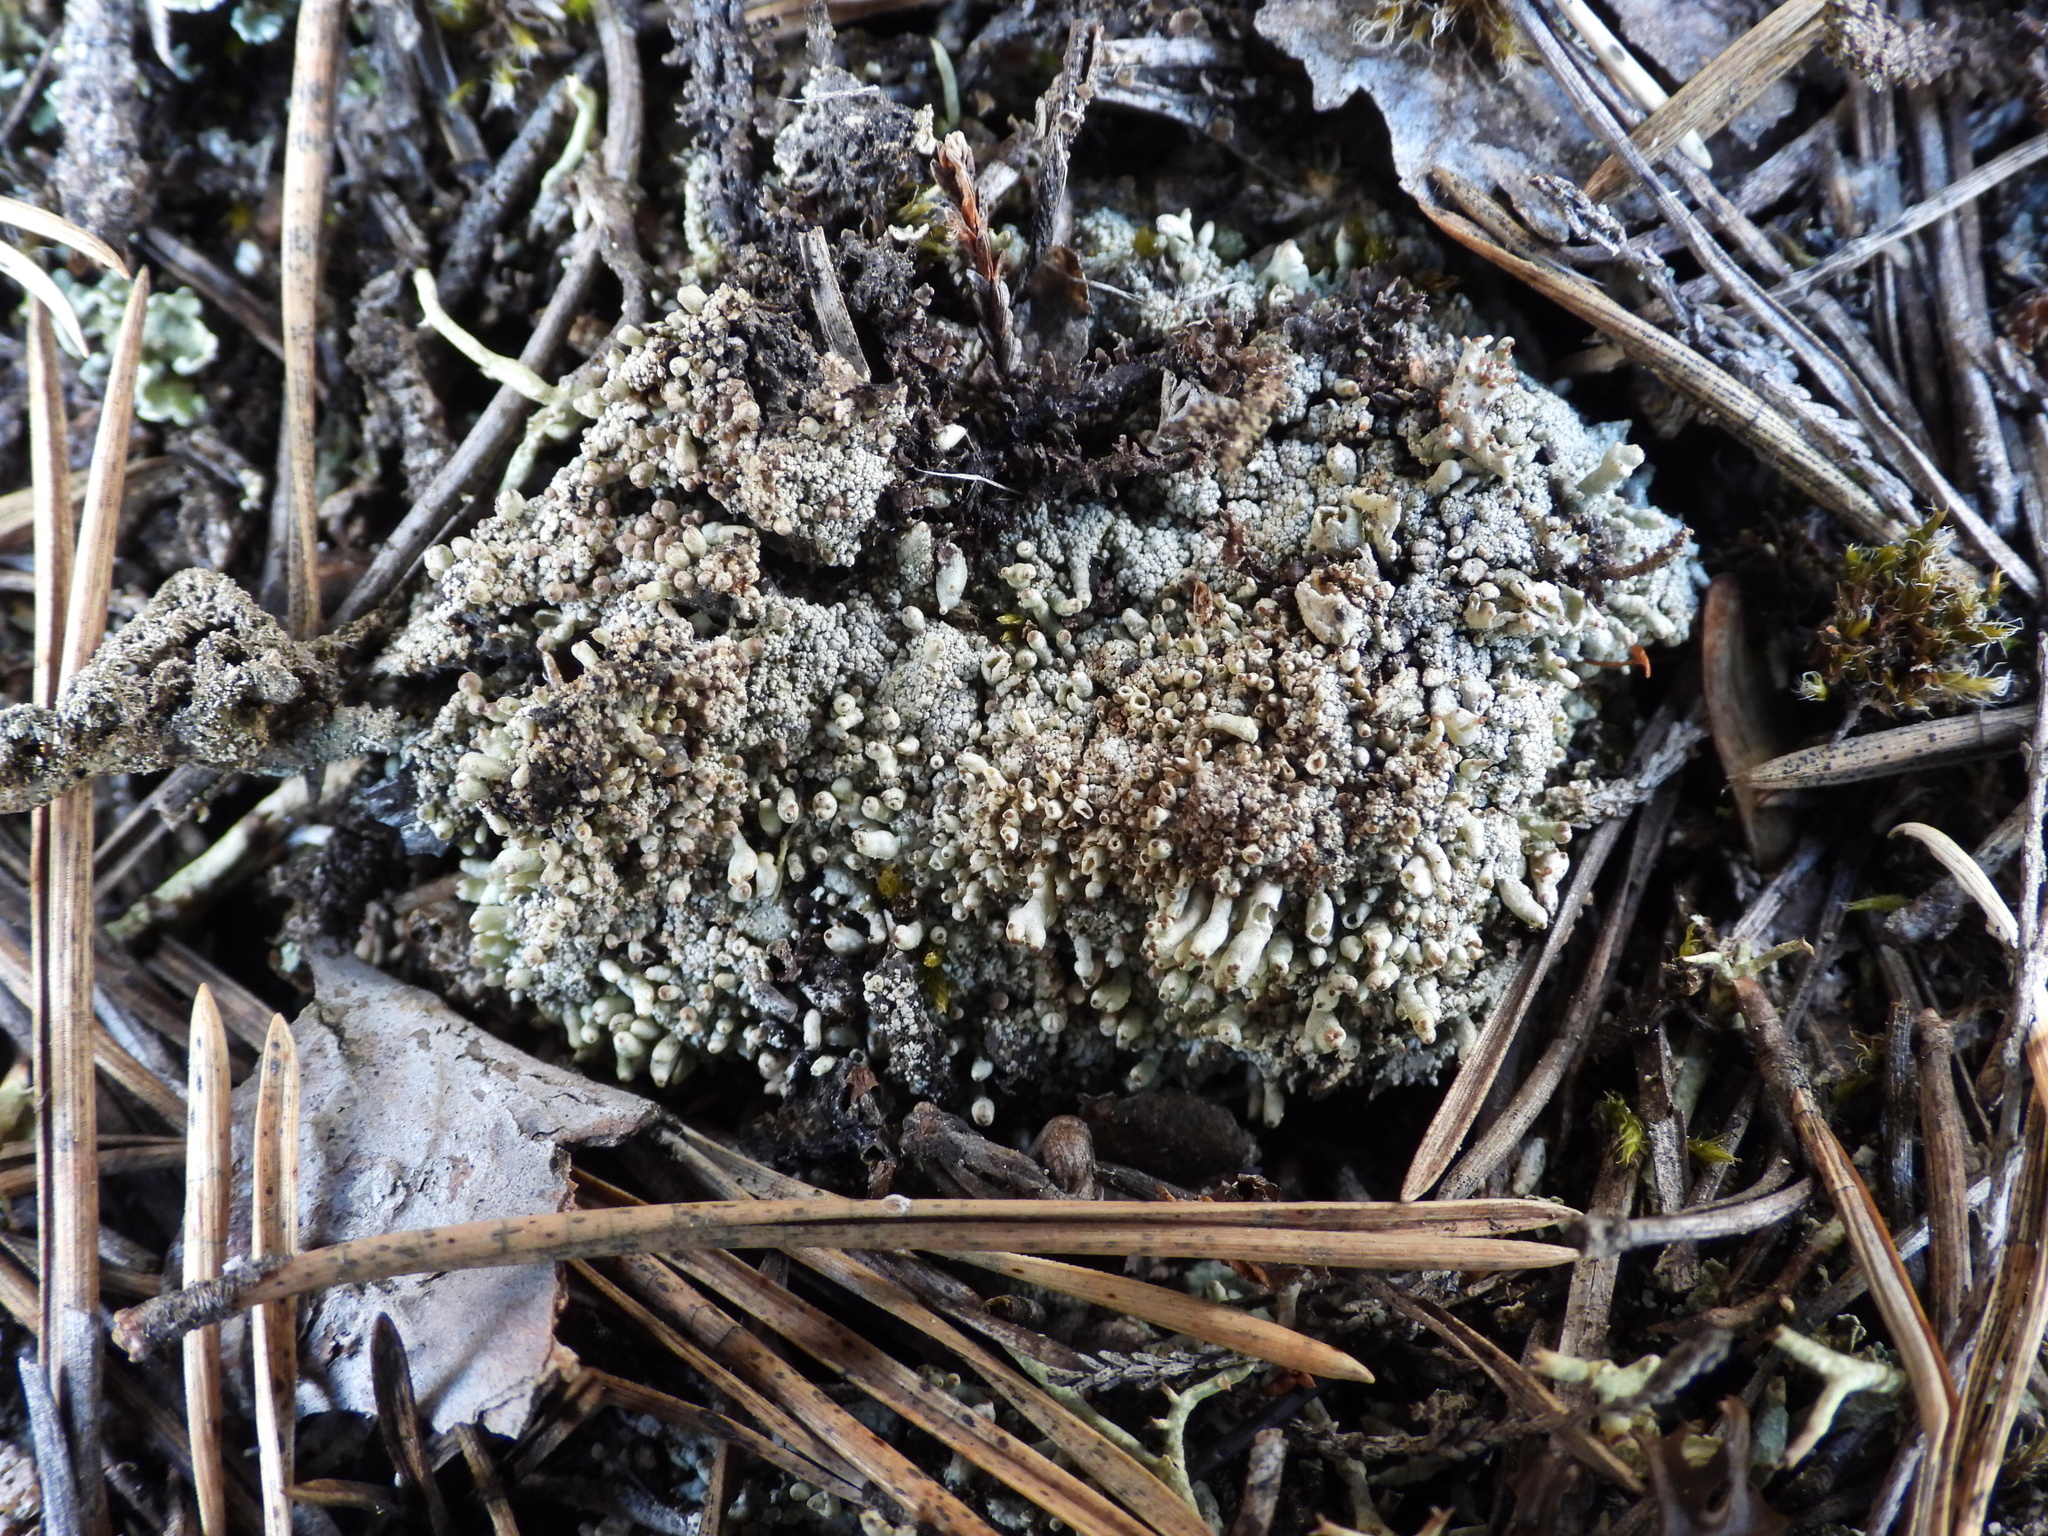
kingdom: Fungi
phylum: Ascomycota
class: Lecanoromycetes
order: Lecanorales
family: Cladoniaceae
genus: Pycnothelia
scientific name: Pycnothelia papillaria
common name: Nipple lichen
